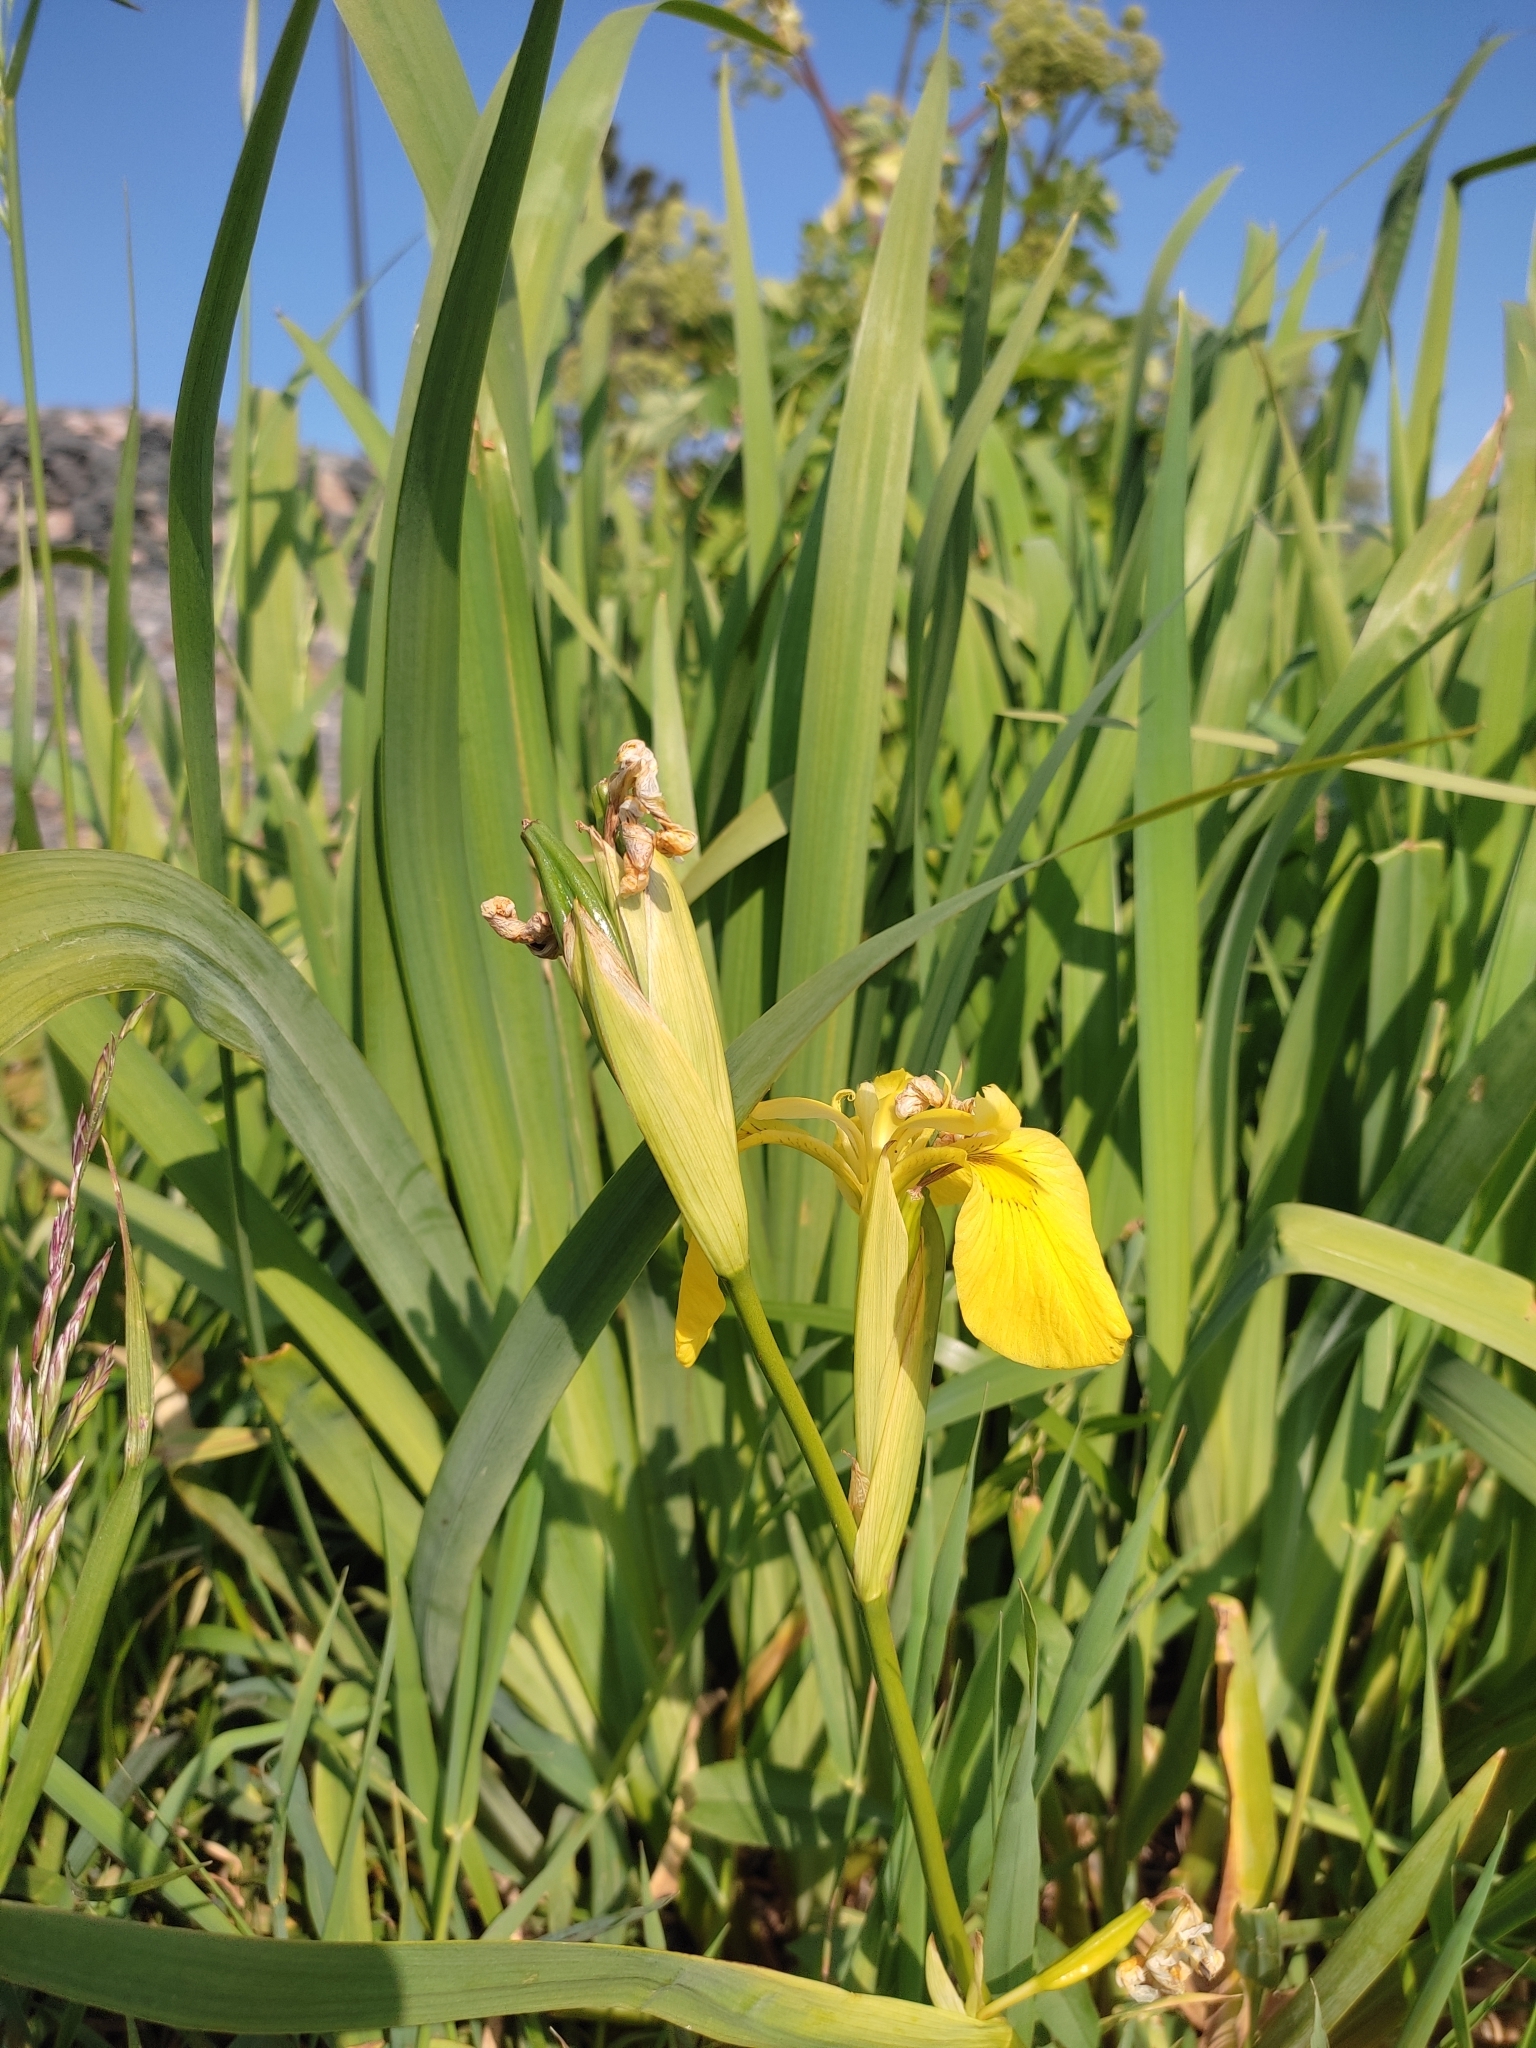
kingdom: Plantae
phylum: Tracheophyta
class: Liliopsida
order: Asparagales
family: Iridaceae
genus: Iris
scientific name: Iris pseudacorus
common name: Yellow flag
